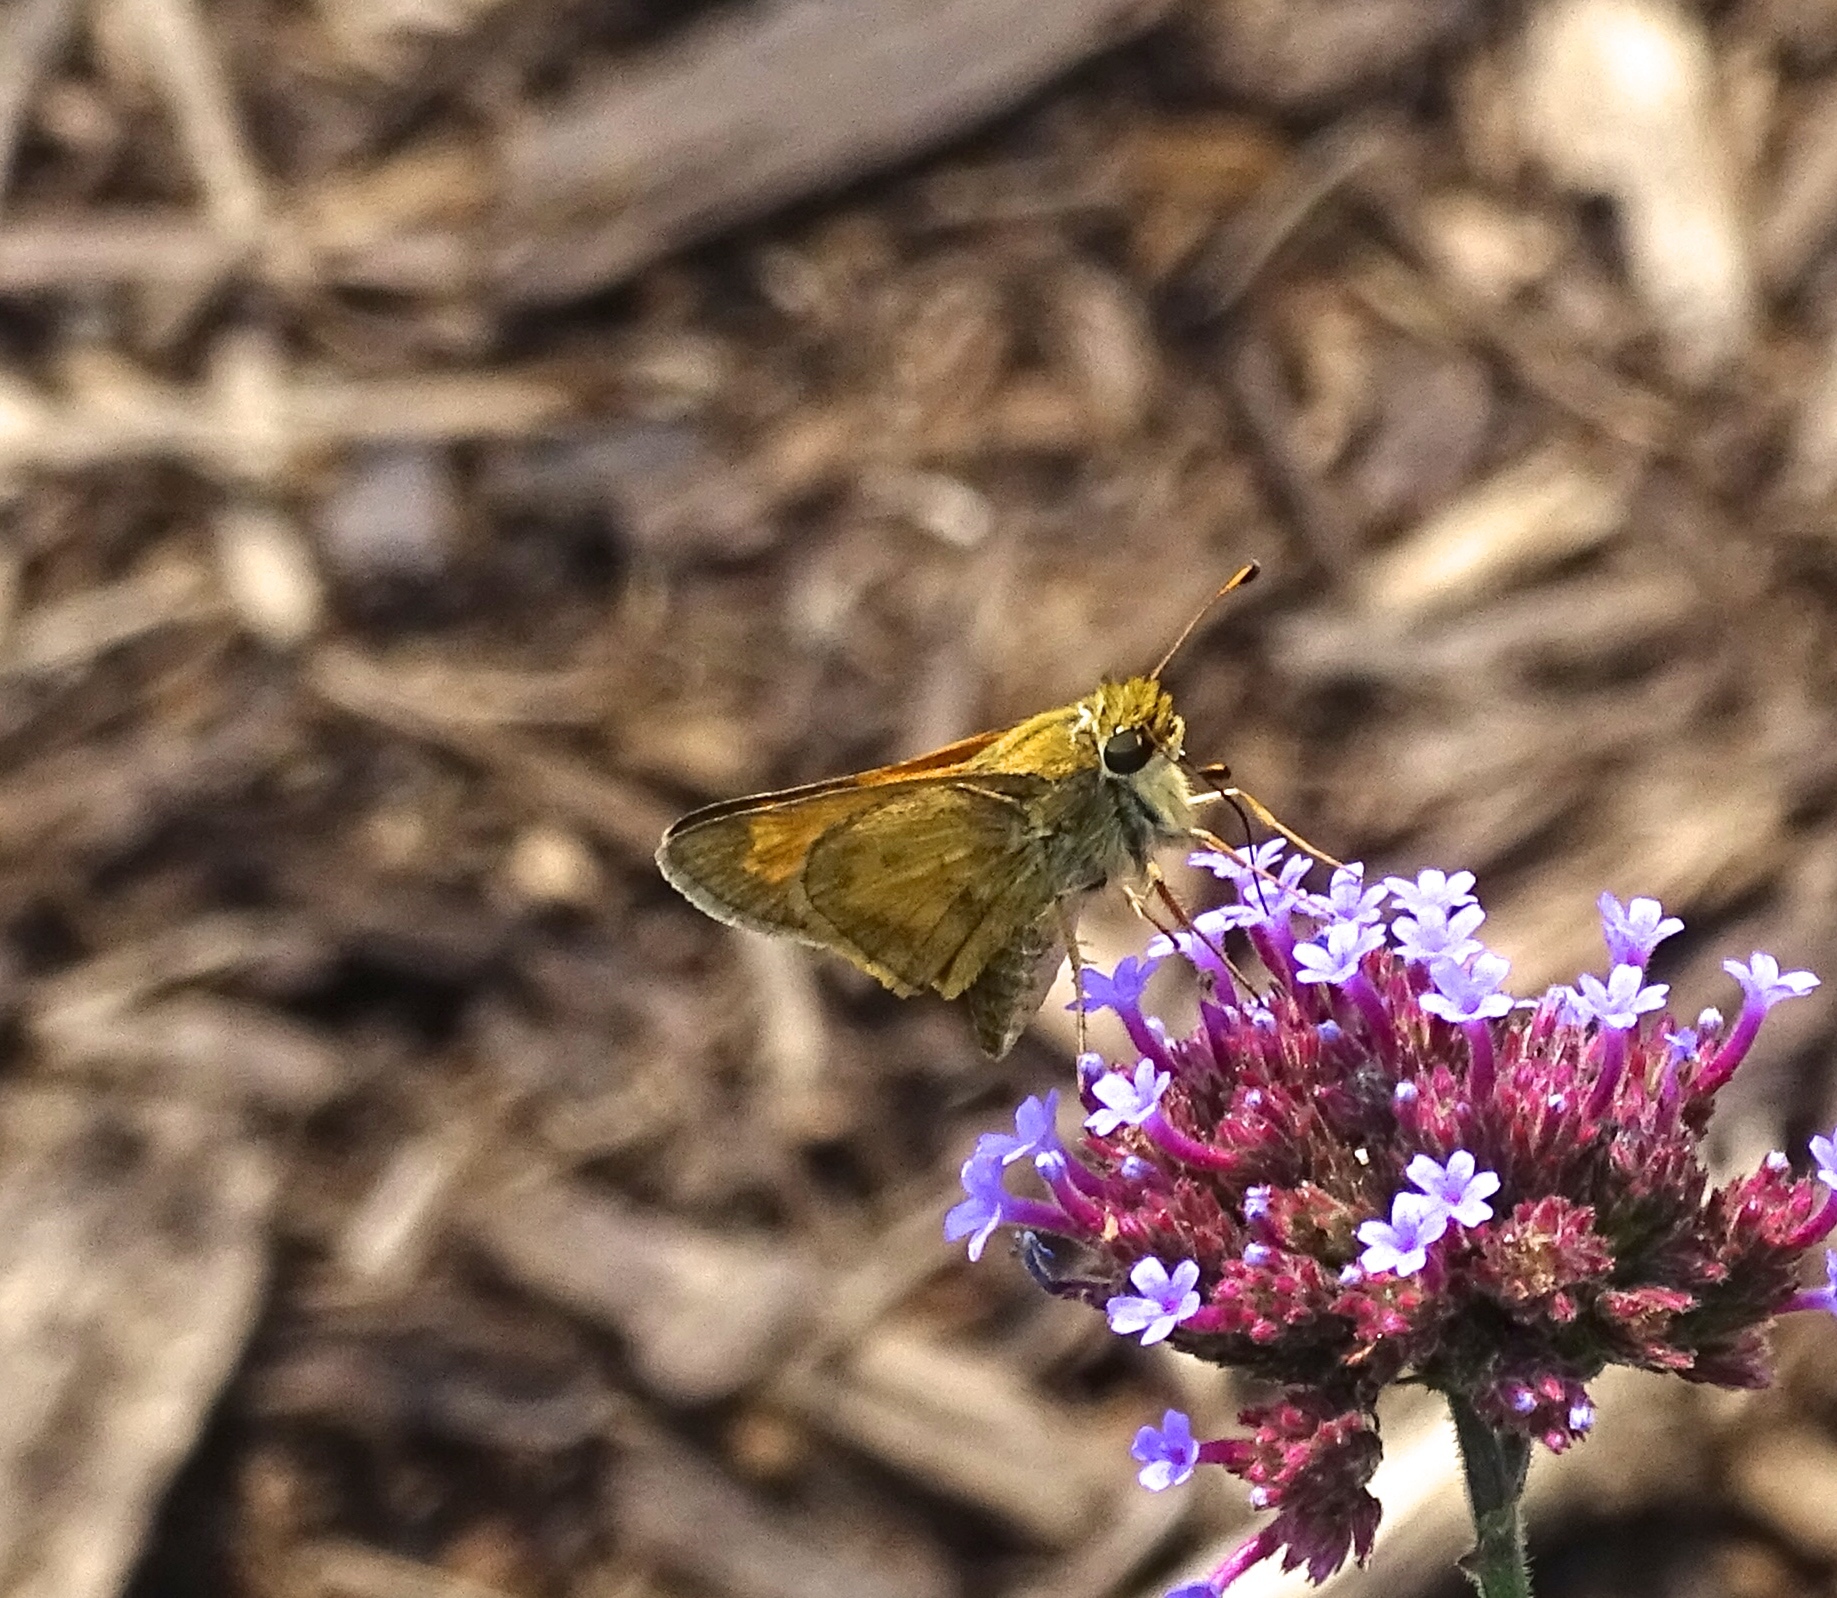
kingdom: Animalia
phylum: Arthropoda
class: Insecta
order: Lepidoptera
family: Hesperiidae
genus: Atalopedes
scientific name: Atalopedes
